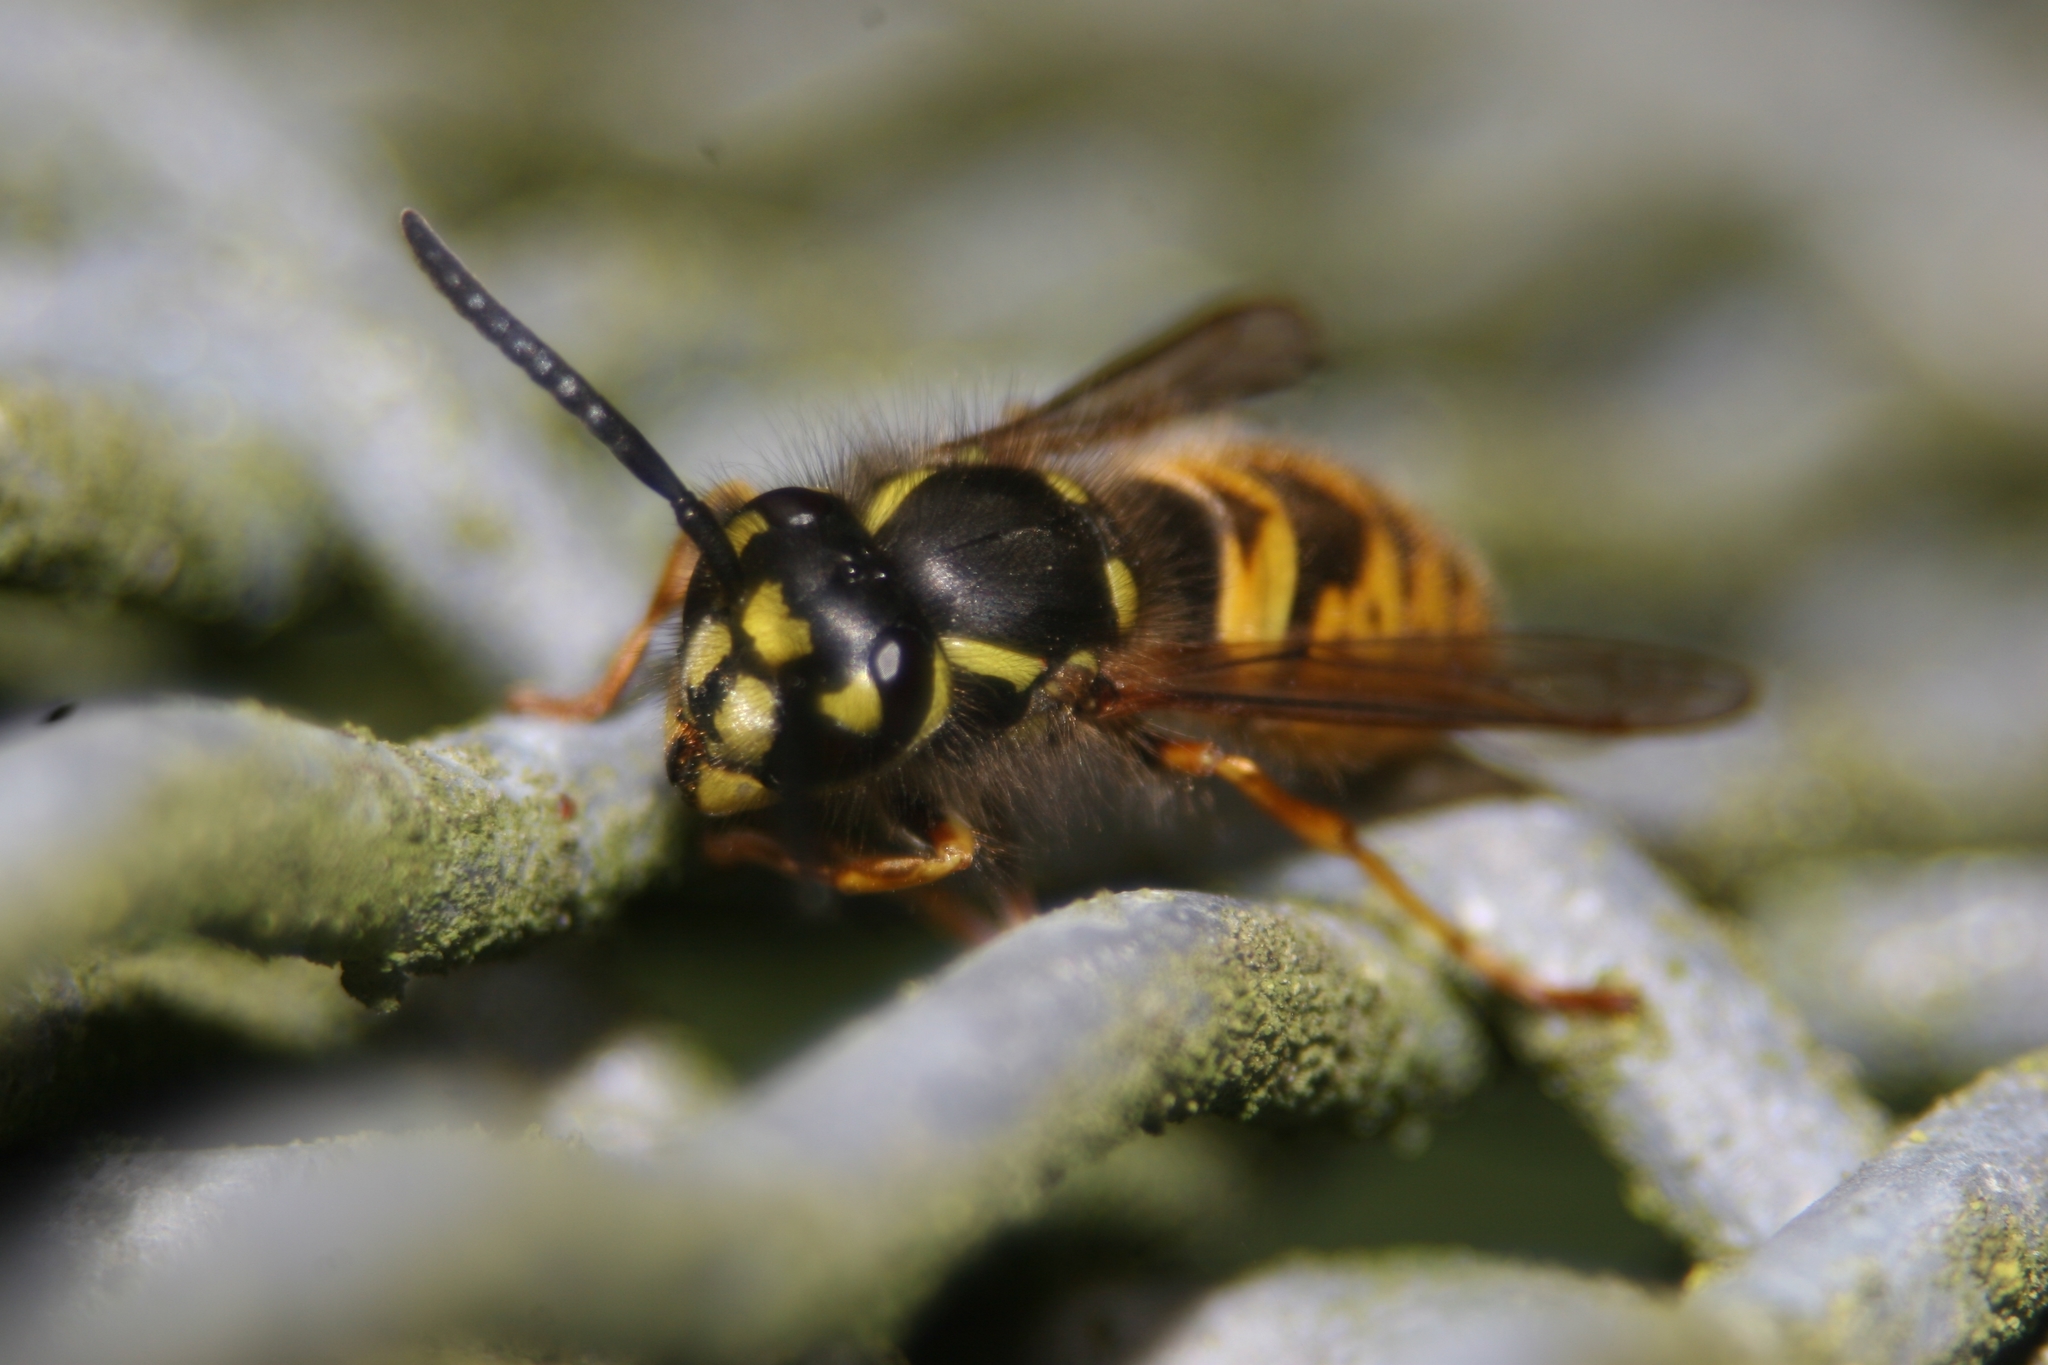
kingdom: Animalia
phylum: Arthropoda
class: Insecta
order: Hymenoptera
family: Vespidae
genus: Vespula
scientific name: Vespula vulgaris
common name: Common wasp
